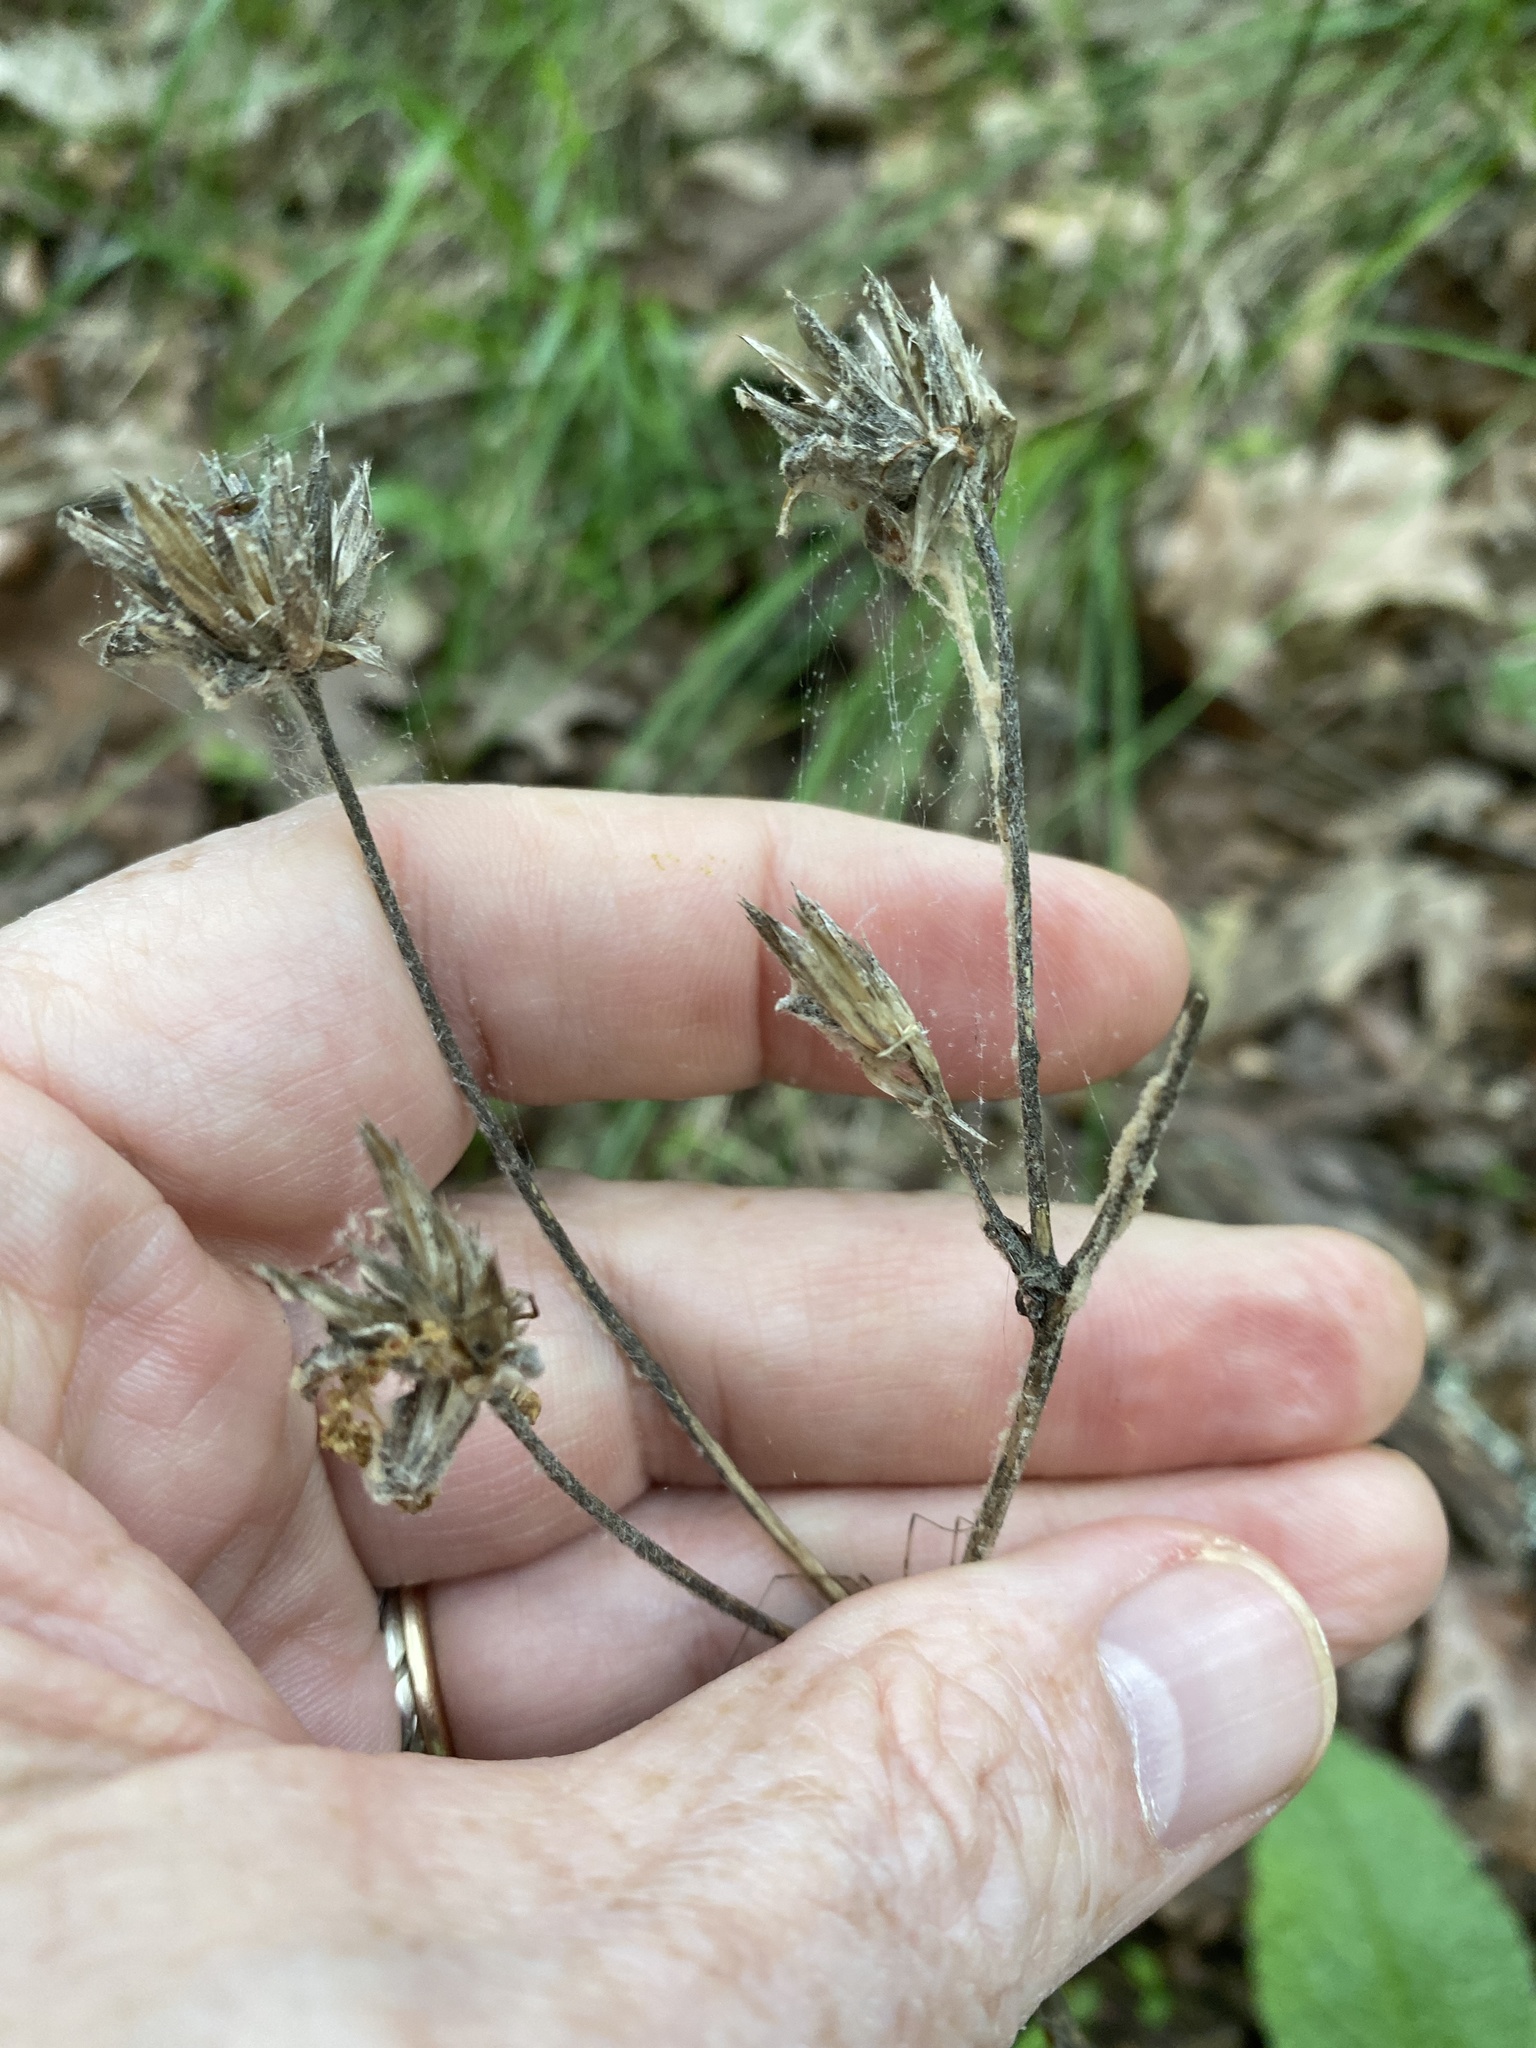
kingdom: Plantae
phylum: Tracheophyta
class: Magnoliopsida
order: Asterales
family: Asteraceae
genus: Elephantopus
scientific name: Elephantopus tomentosus
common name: Tobacco-weed
